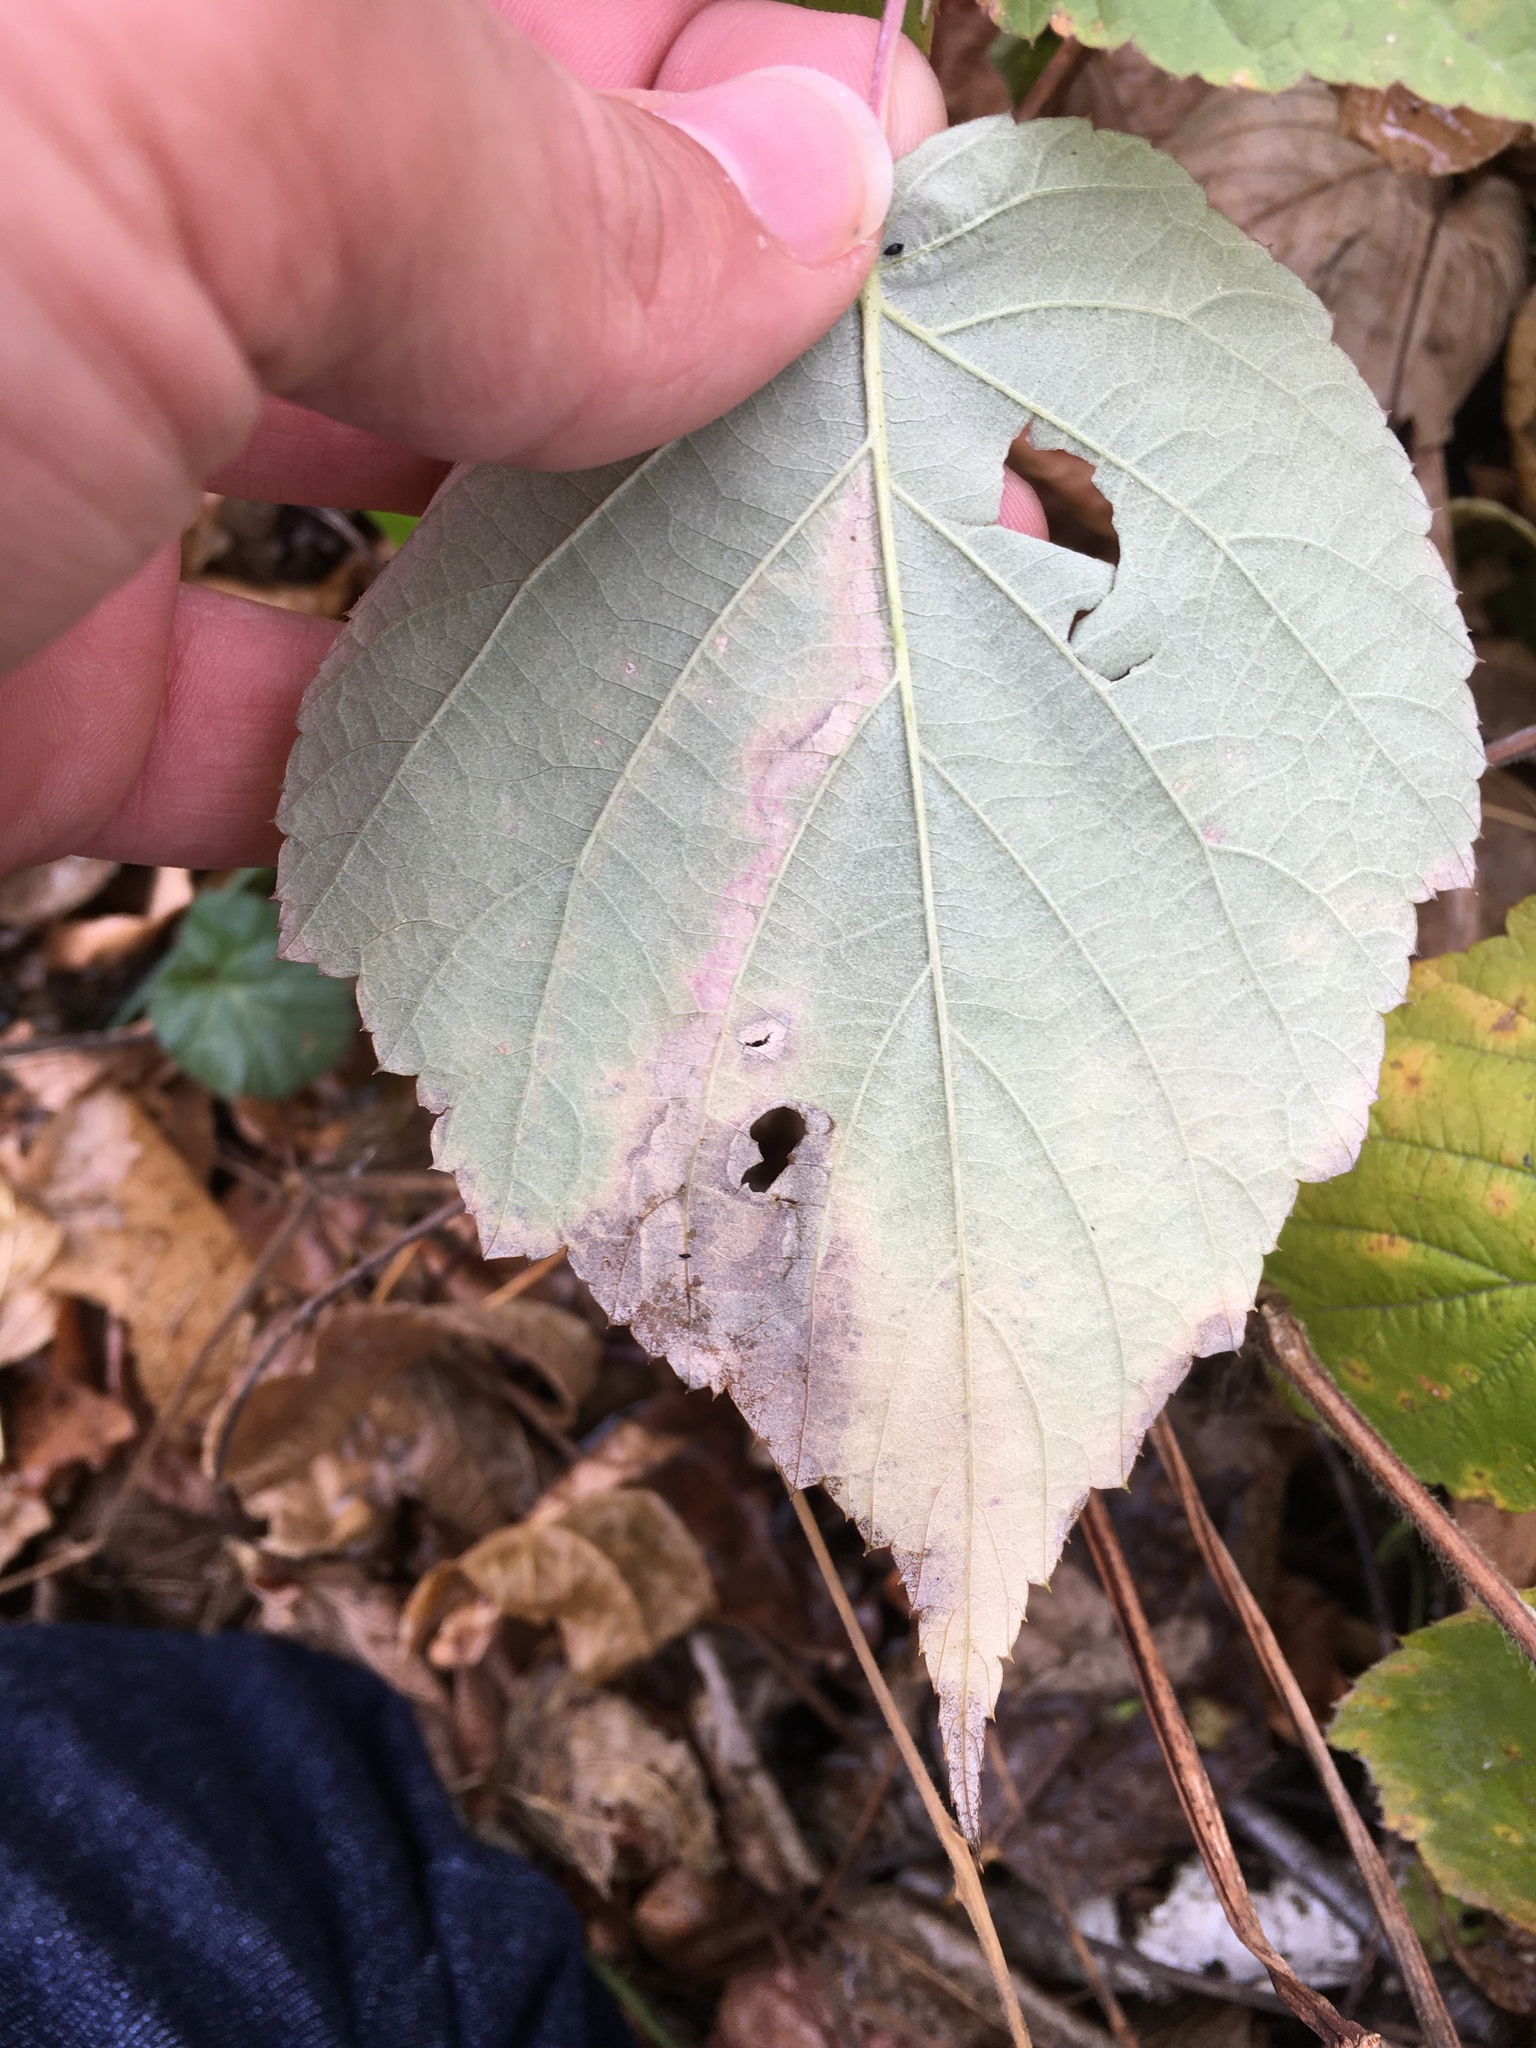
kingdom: Animalia
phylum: Arthropoda
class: Insecta
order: Diptera
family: Agromyzidae
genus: Agromyza
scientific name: Agromyza vockerothi
